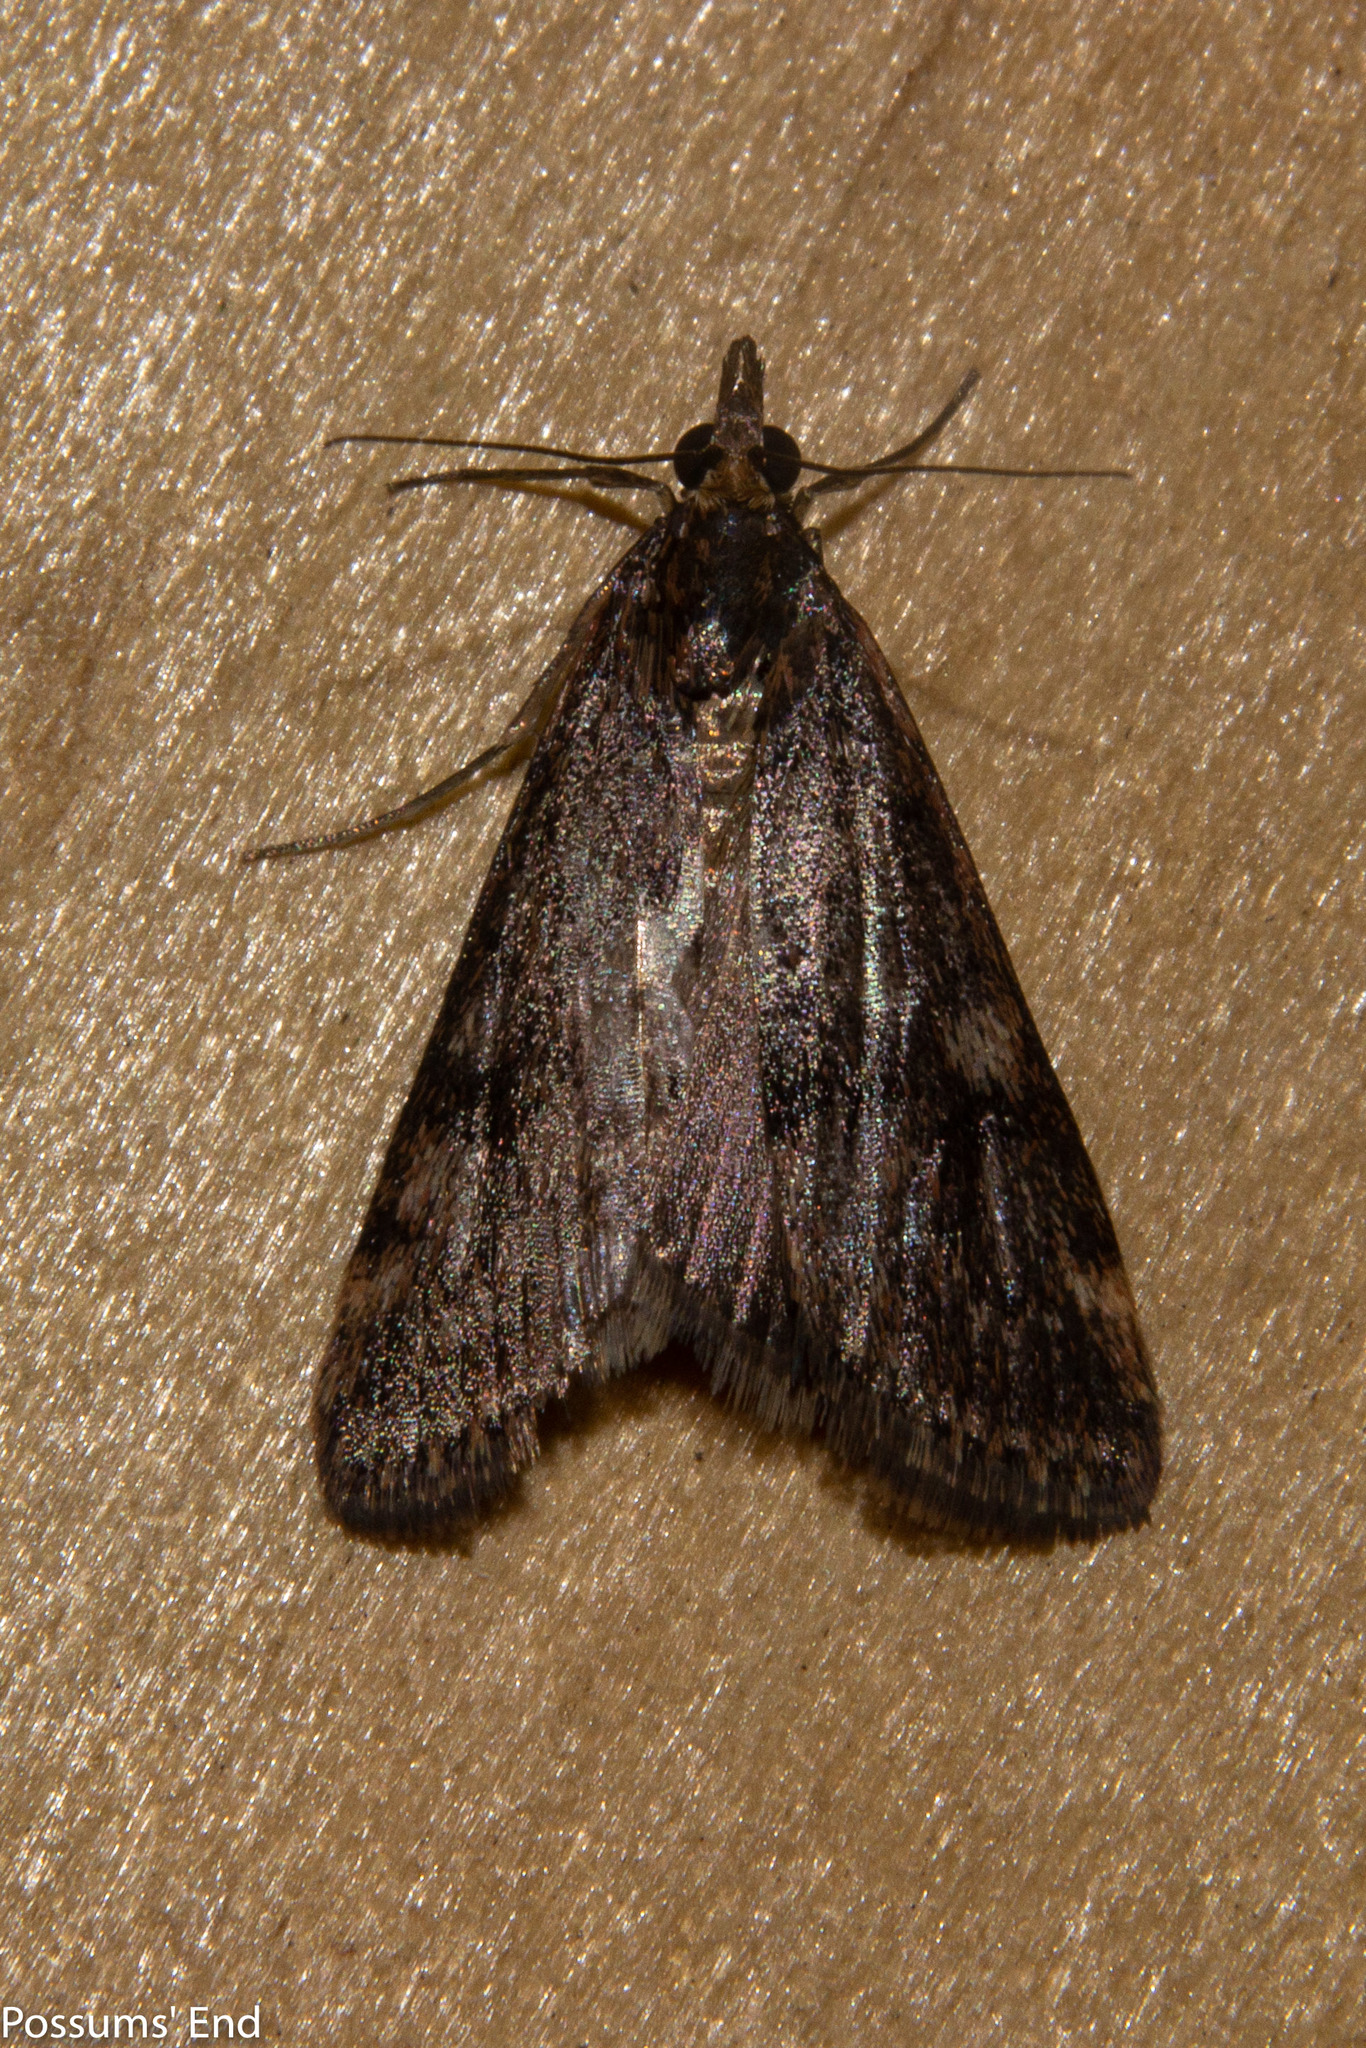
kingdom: Animalia
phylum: Arthropoda
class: Insecta
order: Lepidoptera
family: Crambidae
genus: Achyra
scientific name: Achyra affinitalis
